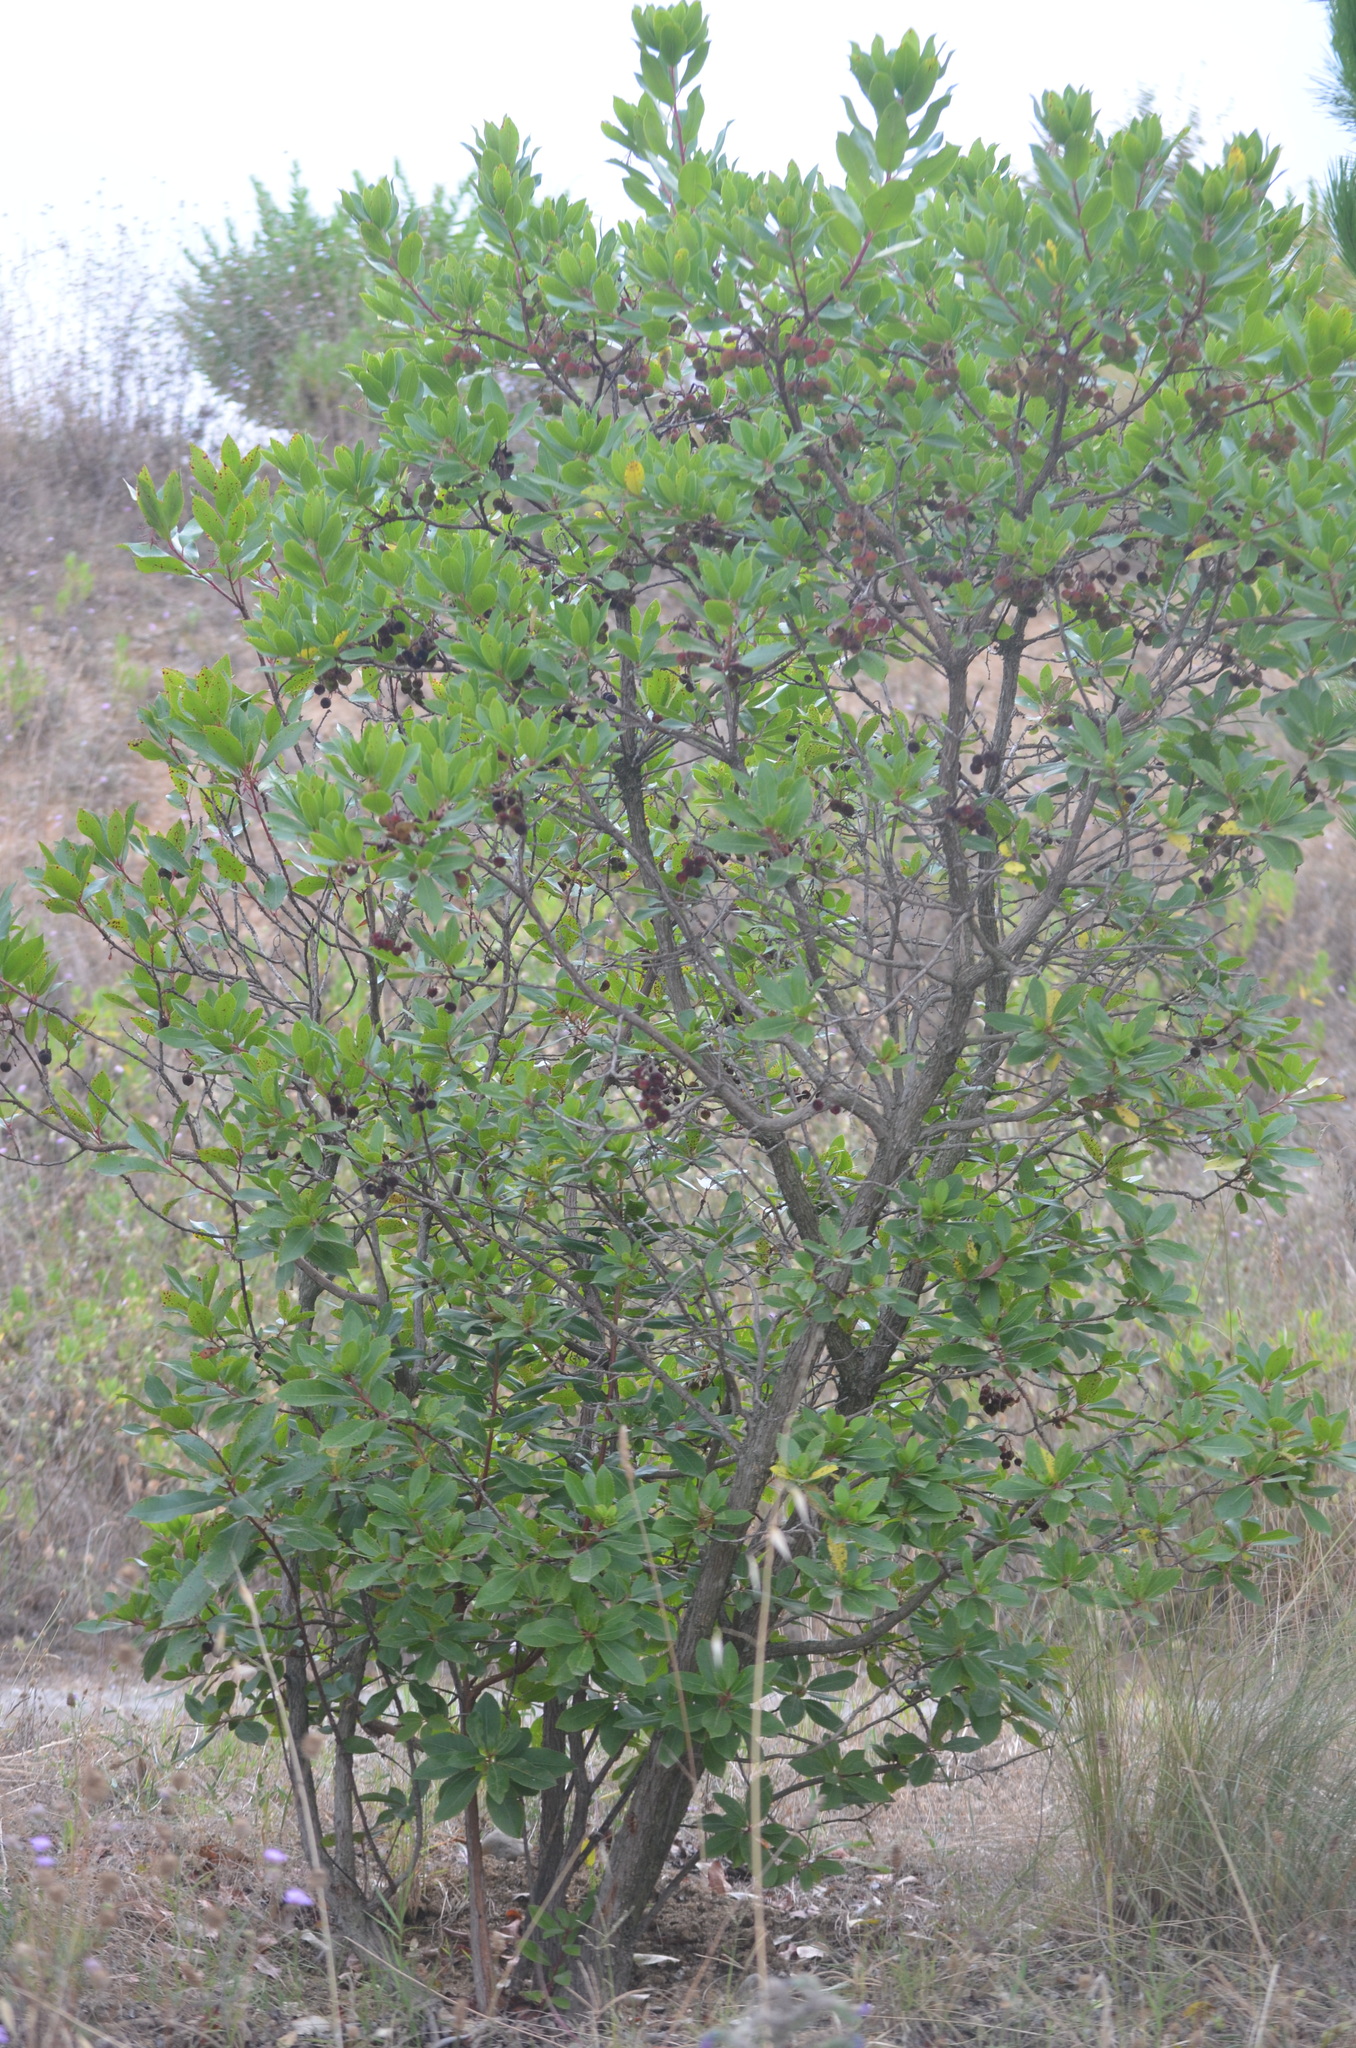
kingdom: Plantae
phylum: Tracheophyta
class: Magnoliopsida
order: Ericales
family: Ericaceae
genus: Arbutus
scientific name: Arbutus unedo
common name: Strawberry-tree
